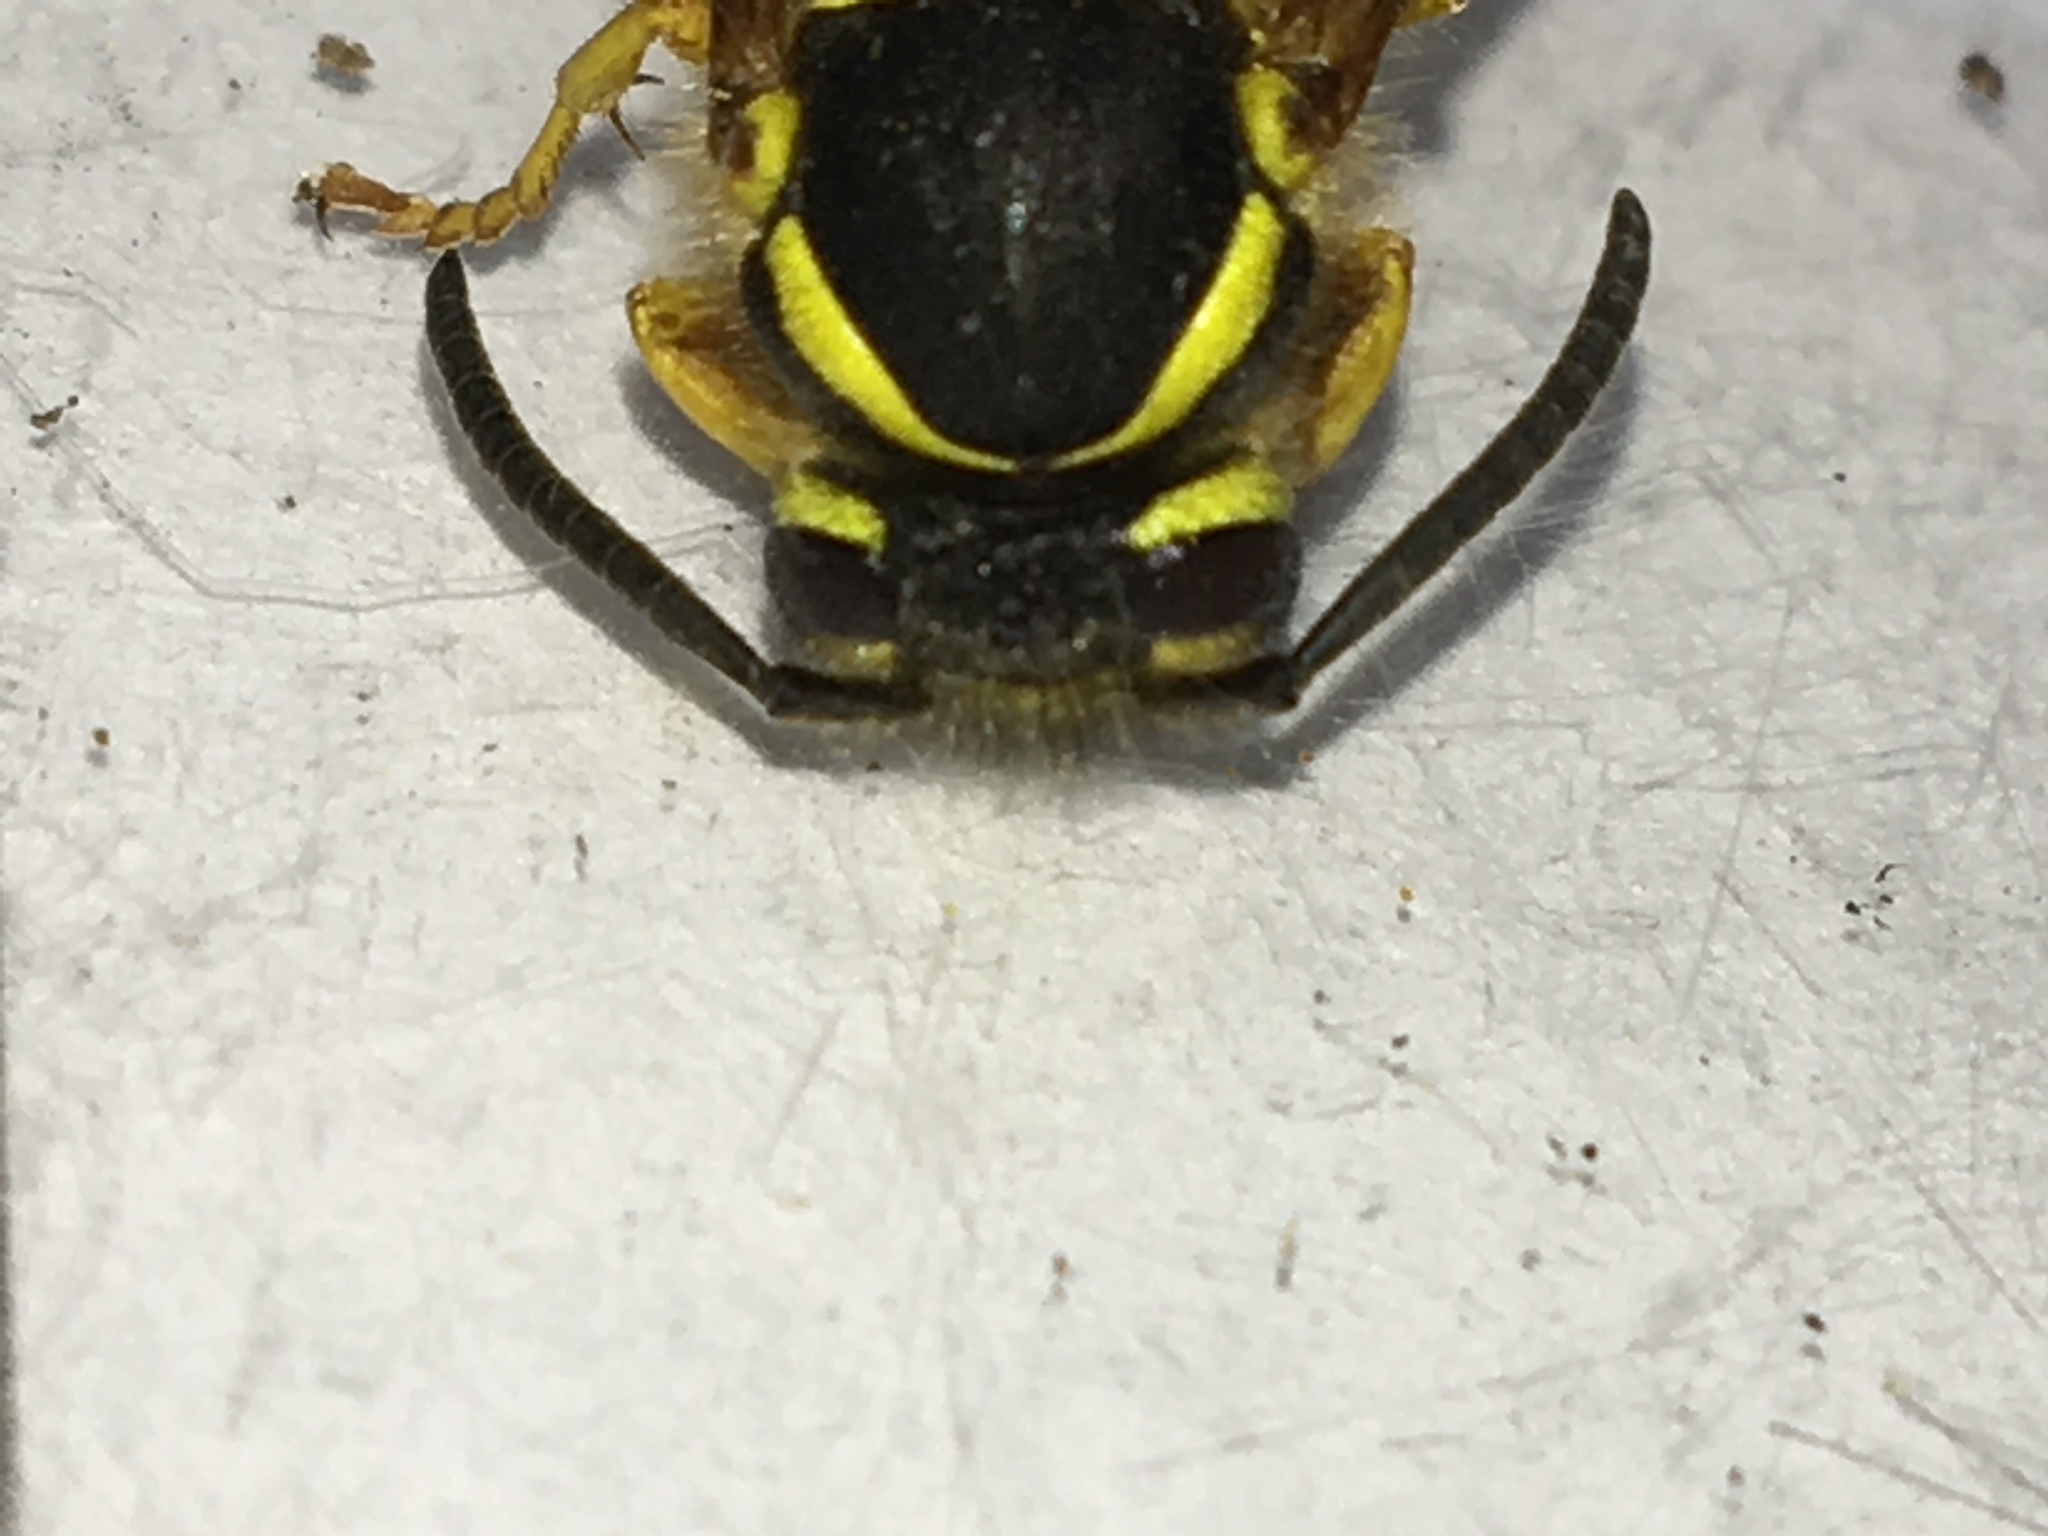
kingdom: Animalia
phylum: Arthropoda
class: Insecta
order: Hymenoptera
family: Vespidae
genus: Vespula
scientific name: Vespula maculifrons
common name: Eastern yellowjacket
